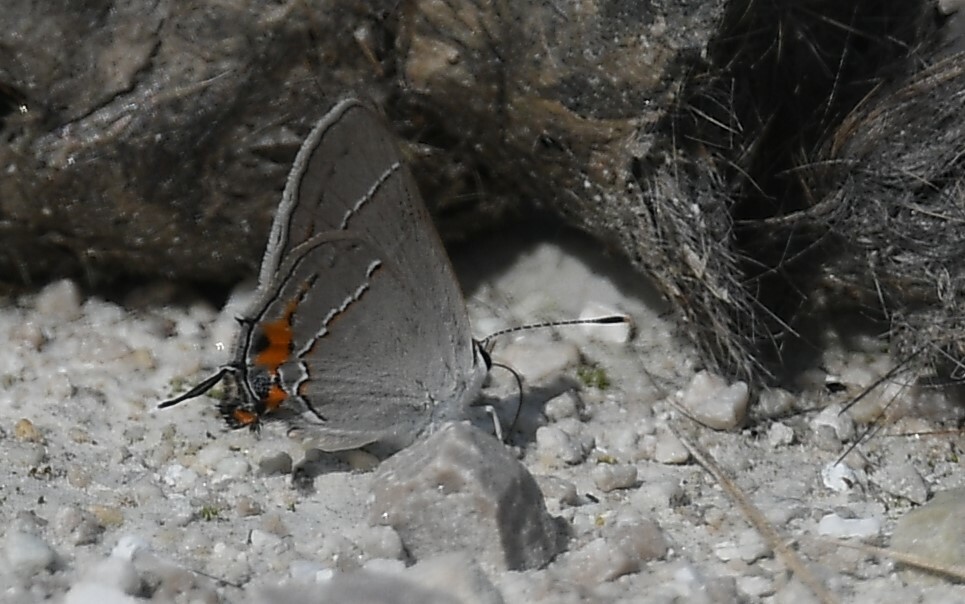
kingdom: Animalia
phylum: Arthropoda
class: Insecta
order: Lepidoptera
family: Lycaenidae
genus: Strymon
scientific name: Strymon melinus
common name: Gray hairstreak
